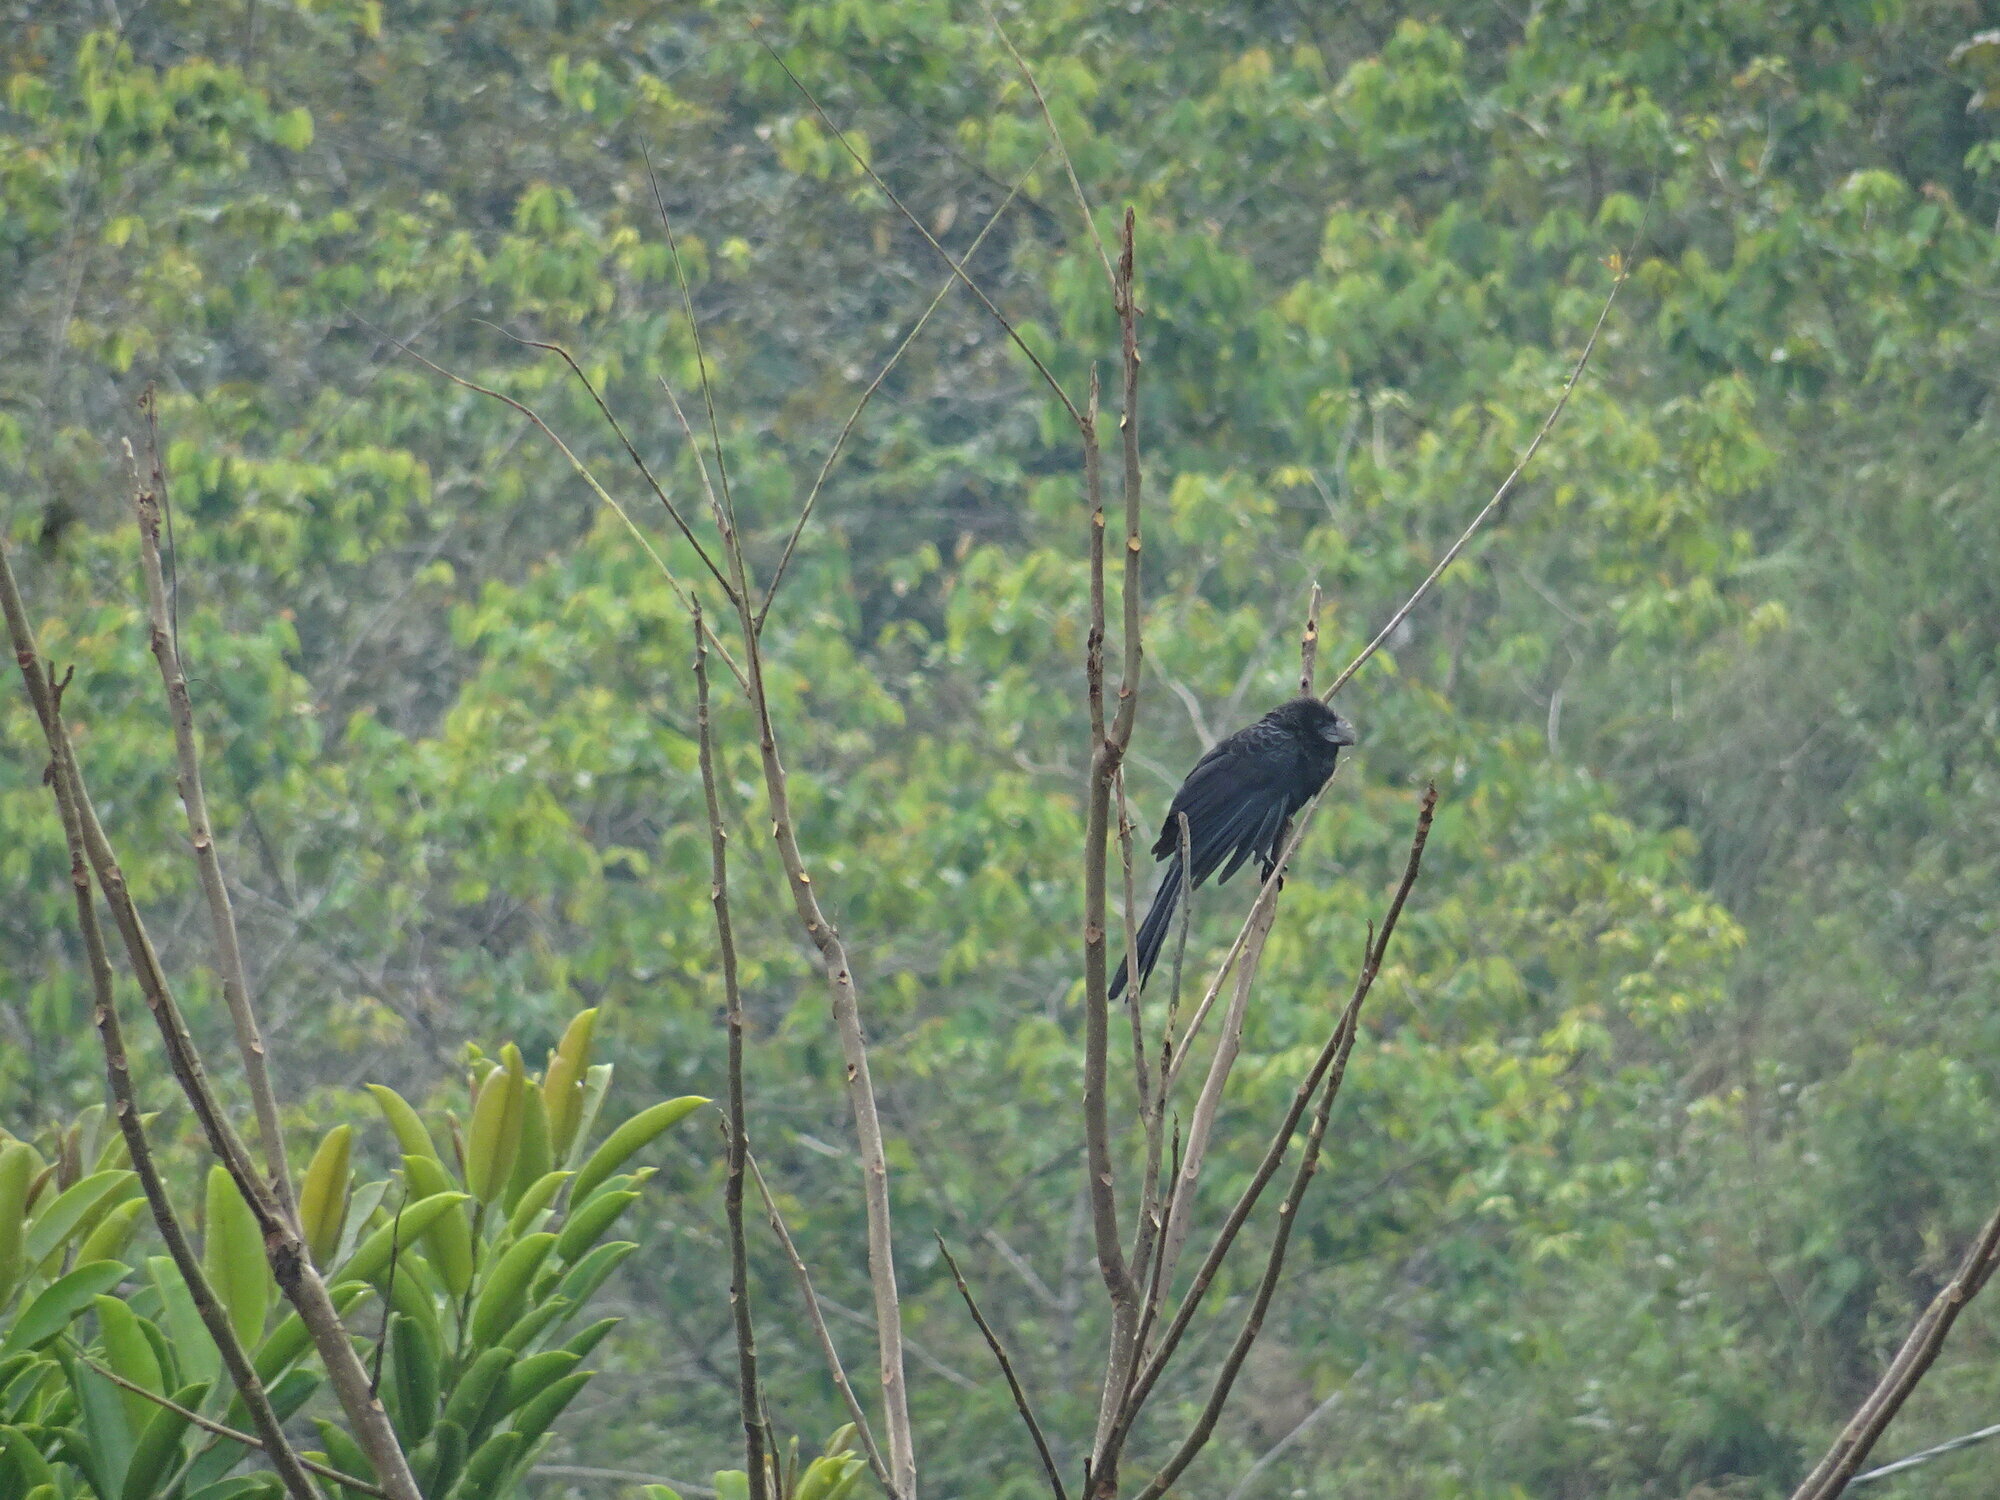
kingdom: Animalia
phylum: Chordata
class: Aves
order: Cuculiformes
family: Cuculidae
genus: Crotophaga
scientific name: Crotophaga ani
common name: Smooth-billed ani
